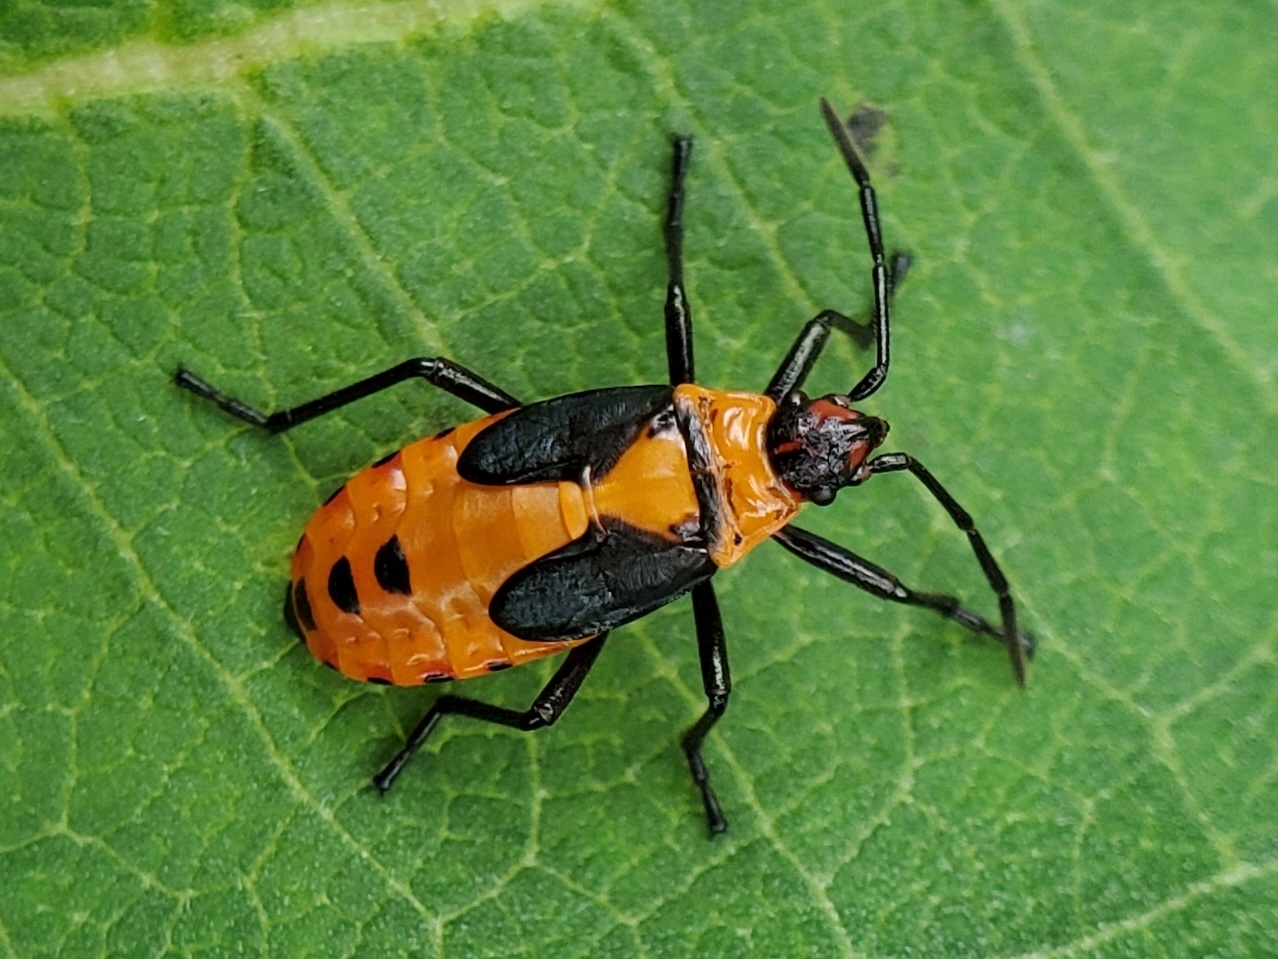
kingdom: Animalia
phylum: Arthropoda
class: Insecta
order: Hemiptera
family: Lygaeidae
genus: Oncopeltus
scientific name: Oncopeltus fasciatus
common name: Large milkweed bug
